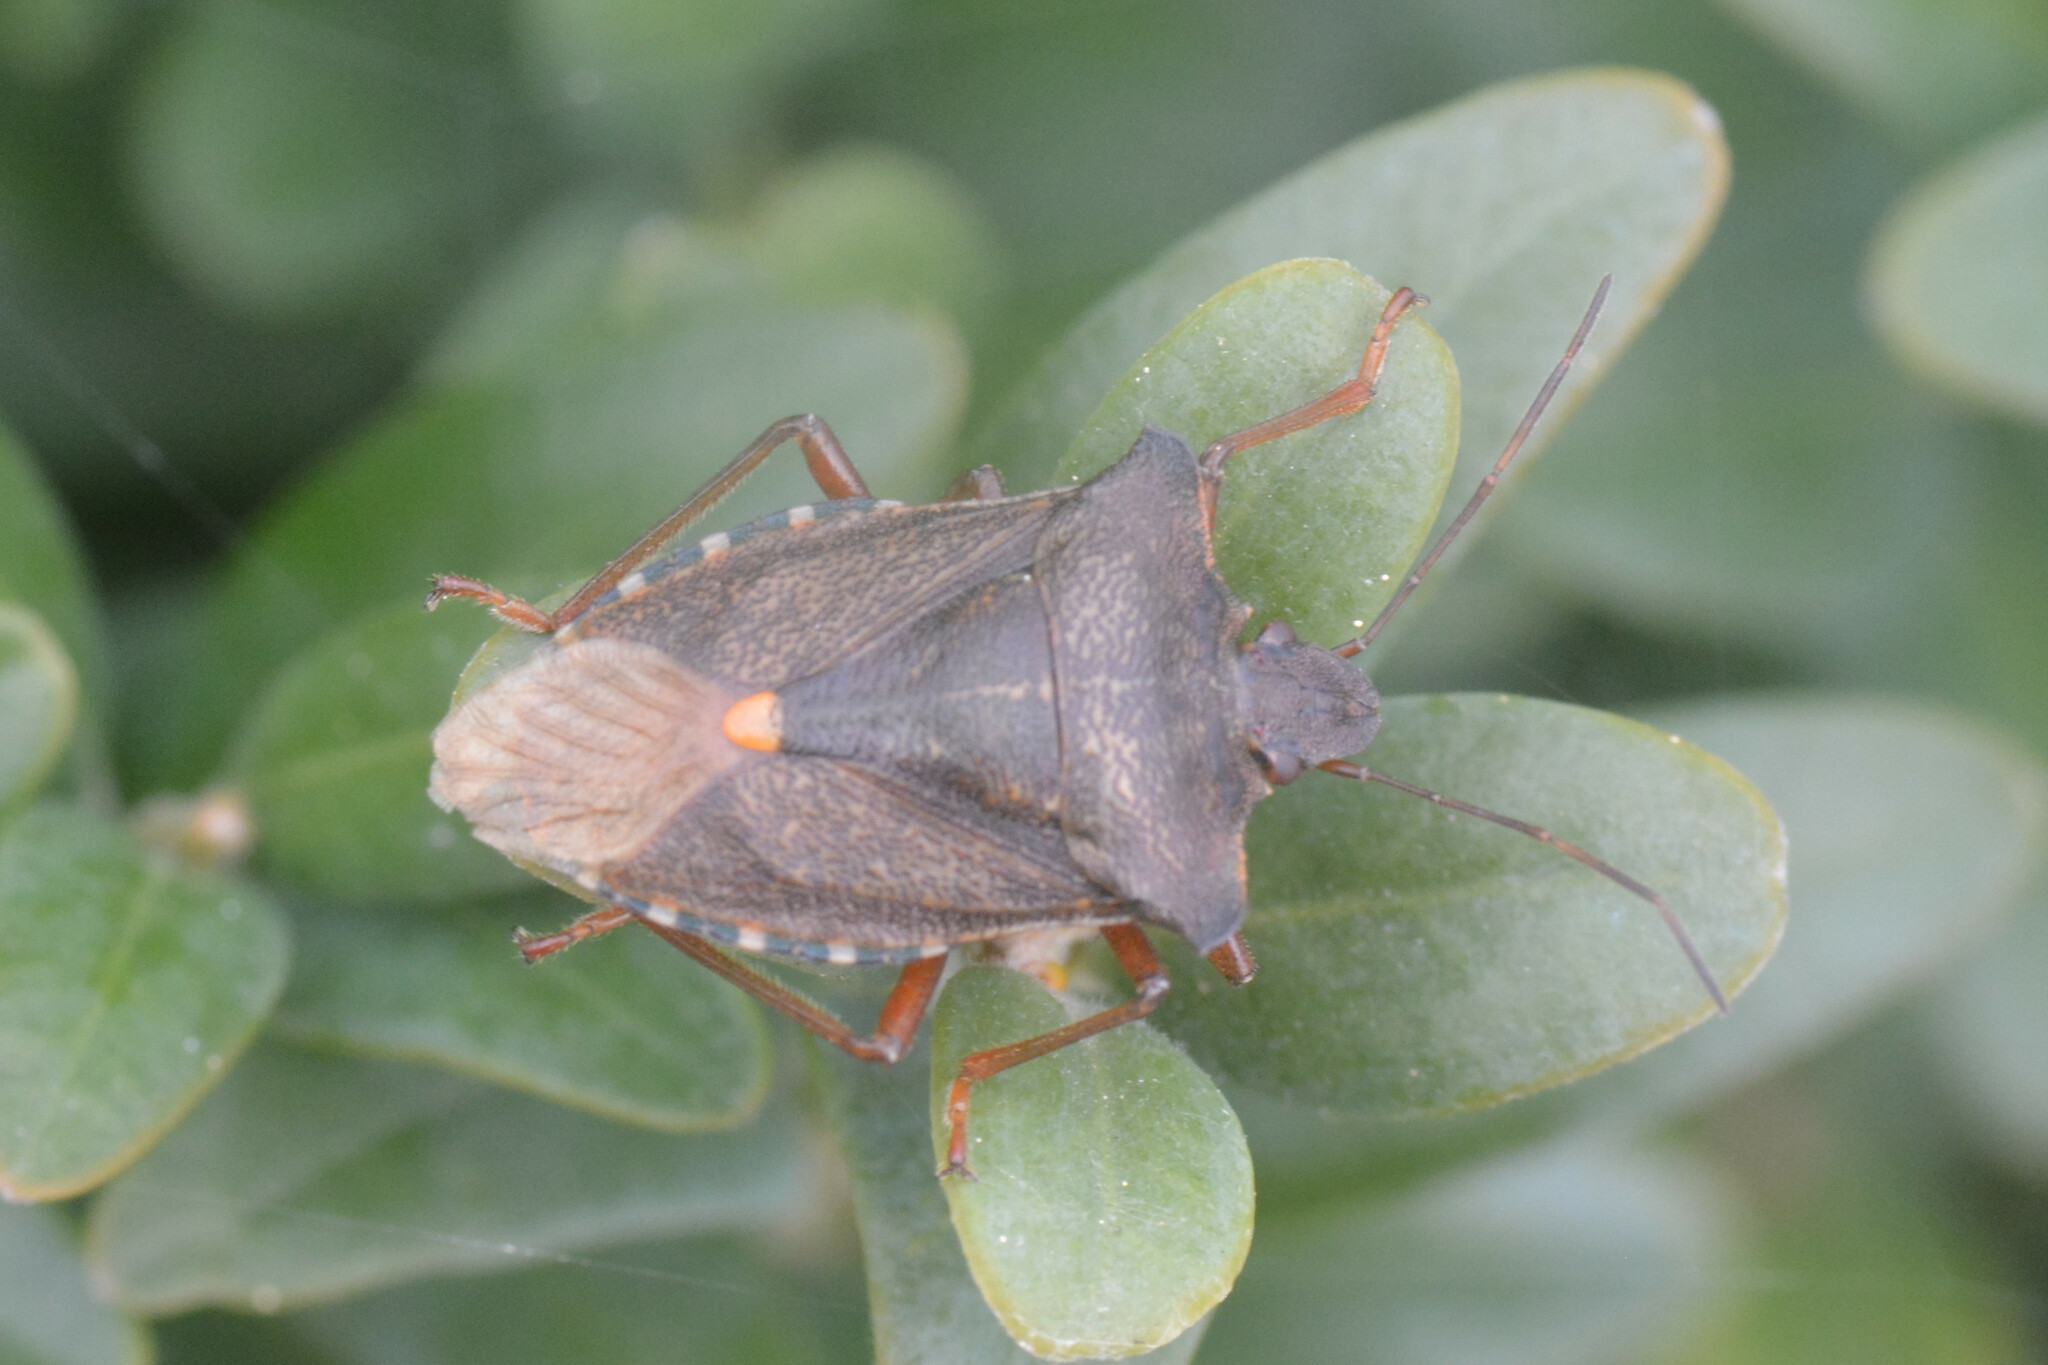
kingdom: Animalia
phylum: Arthropoda
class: Insecta
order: Hemiptera
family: Pentatomidae
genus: Pentatoma
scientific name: Pentatoma rufipes
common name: Forest bug
